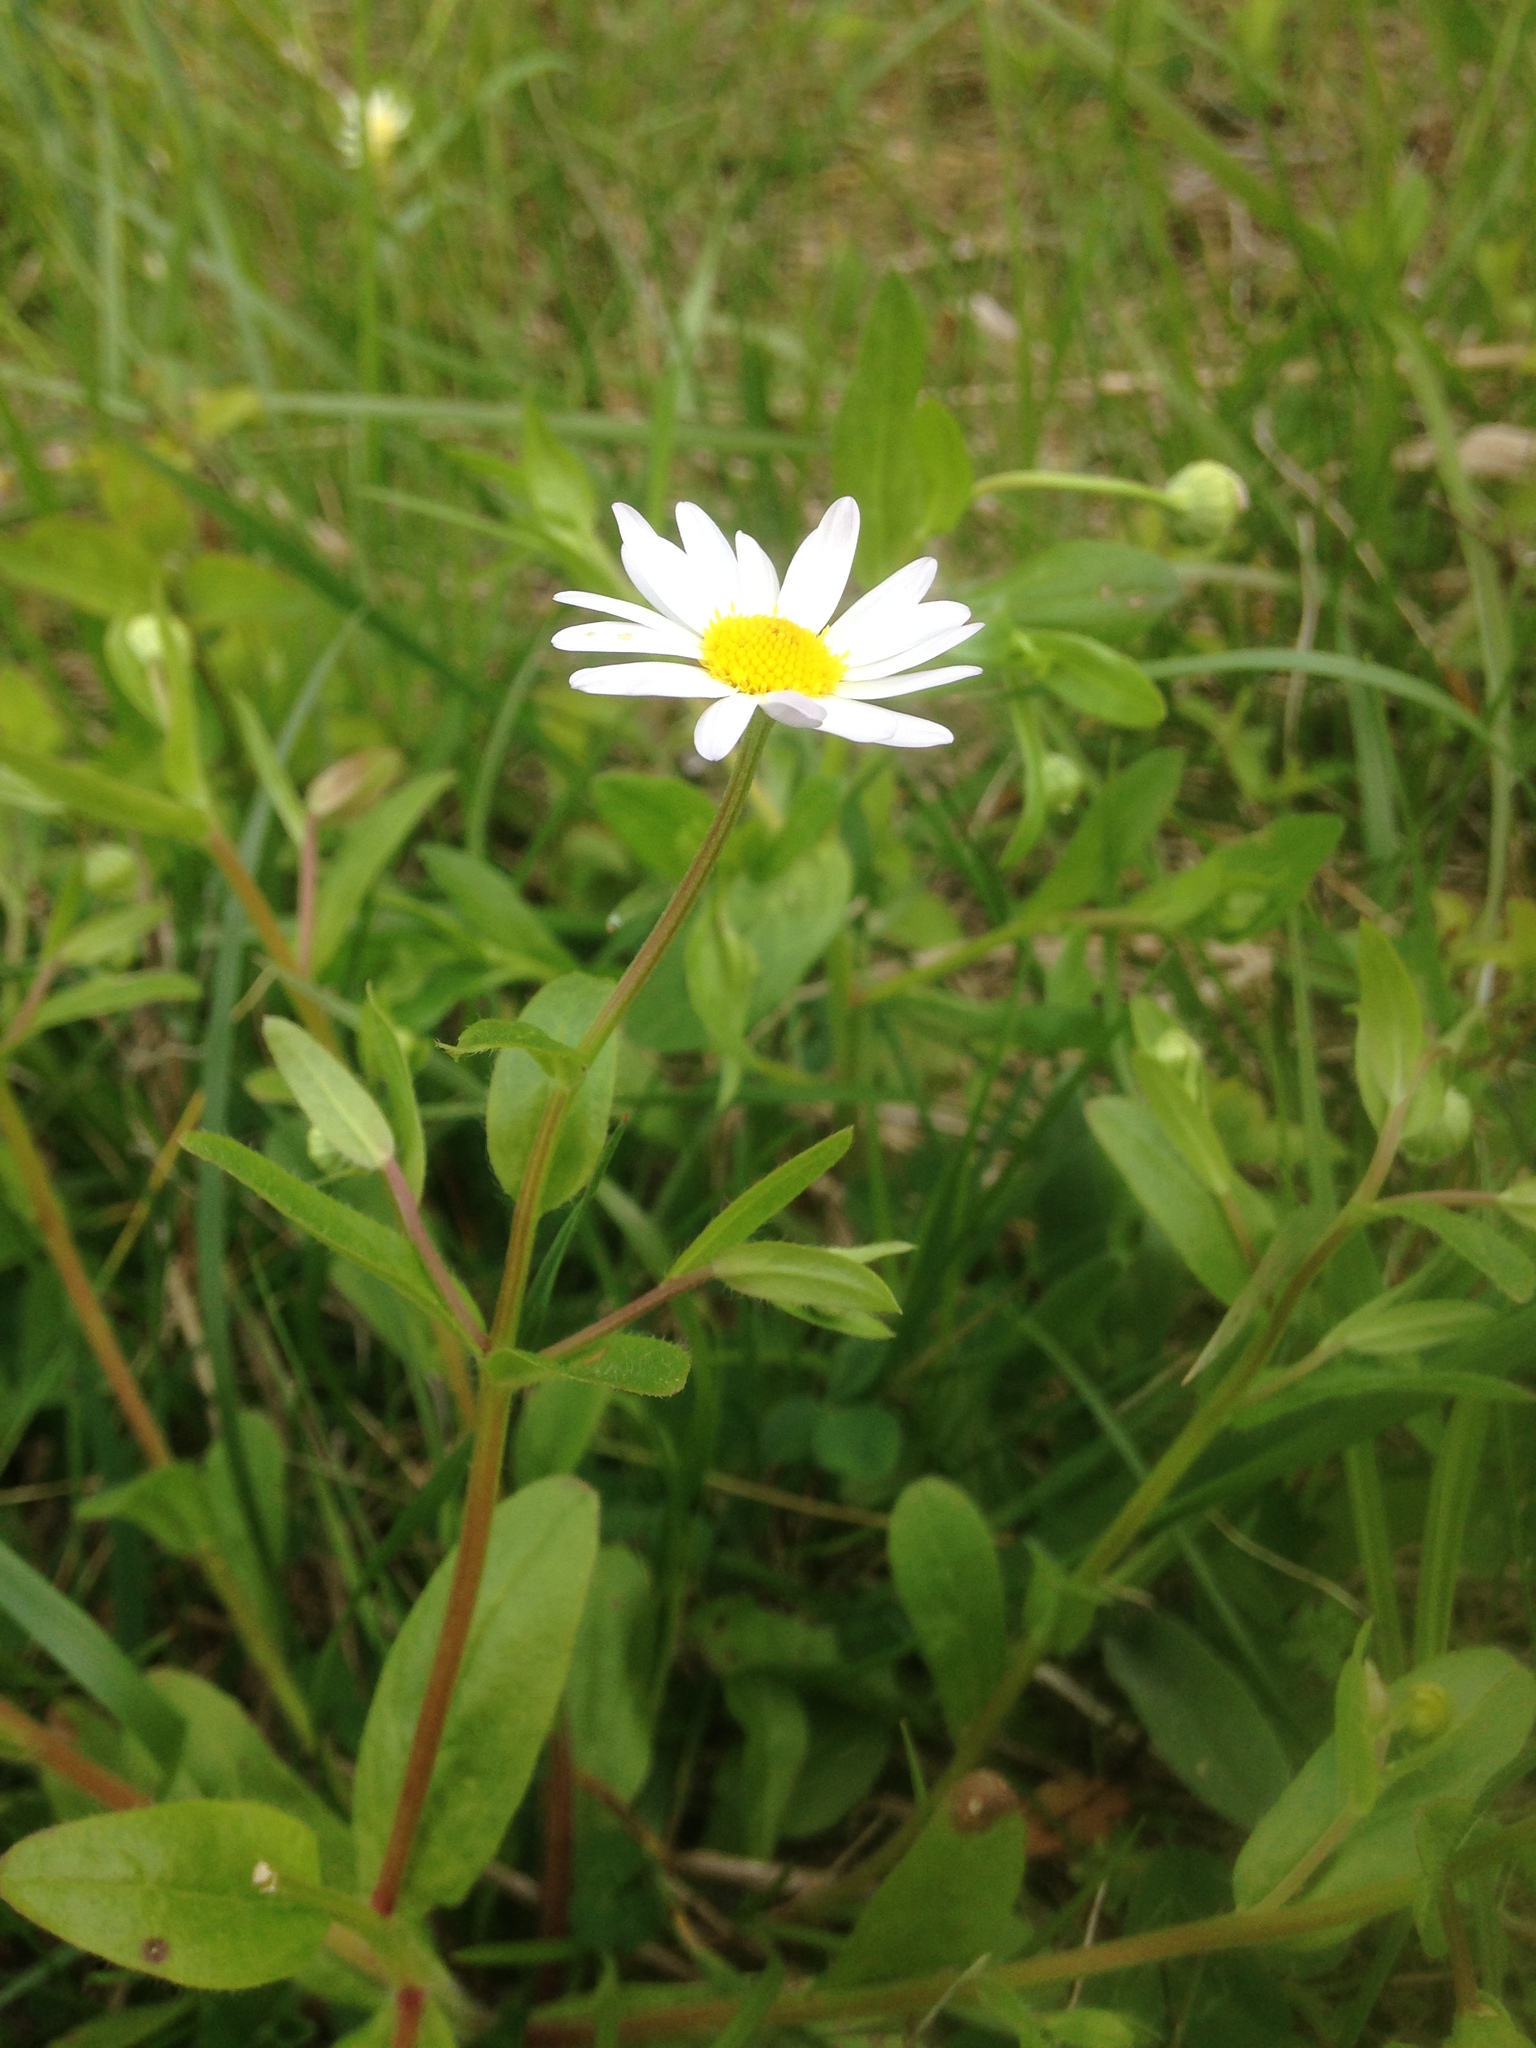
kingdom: Plantae
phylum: Tracheophyta
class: Magnoliopsida
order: Asterales
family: Asteraceae
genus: Astranthium
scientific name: Astranthium integrifolium
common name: Western daisy
